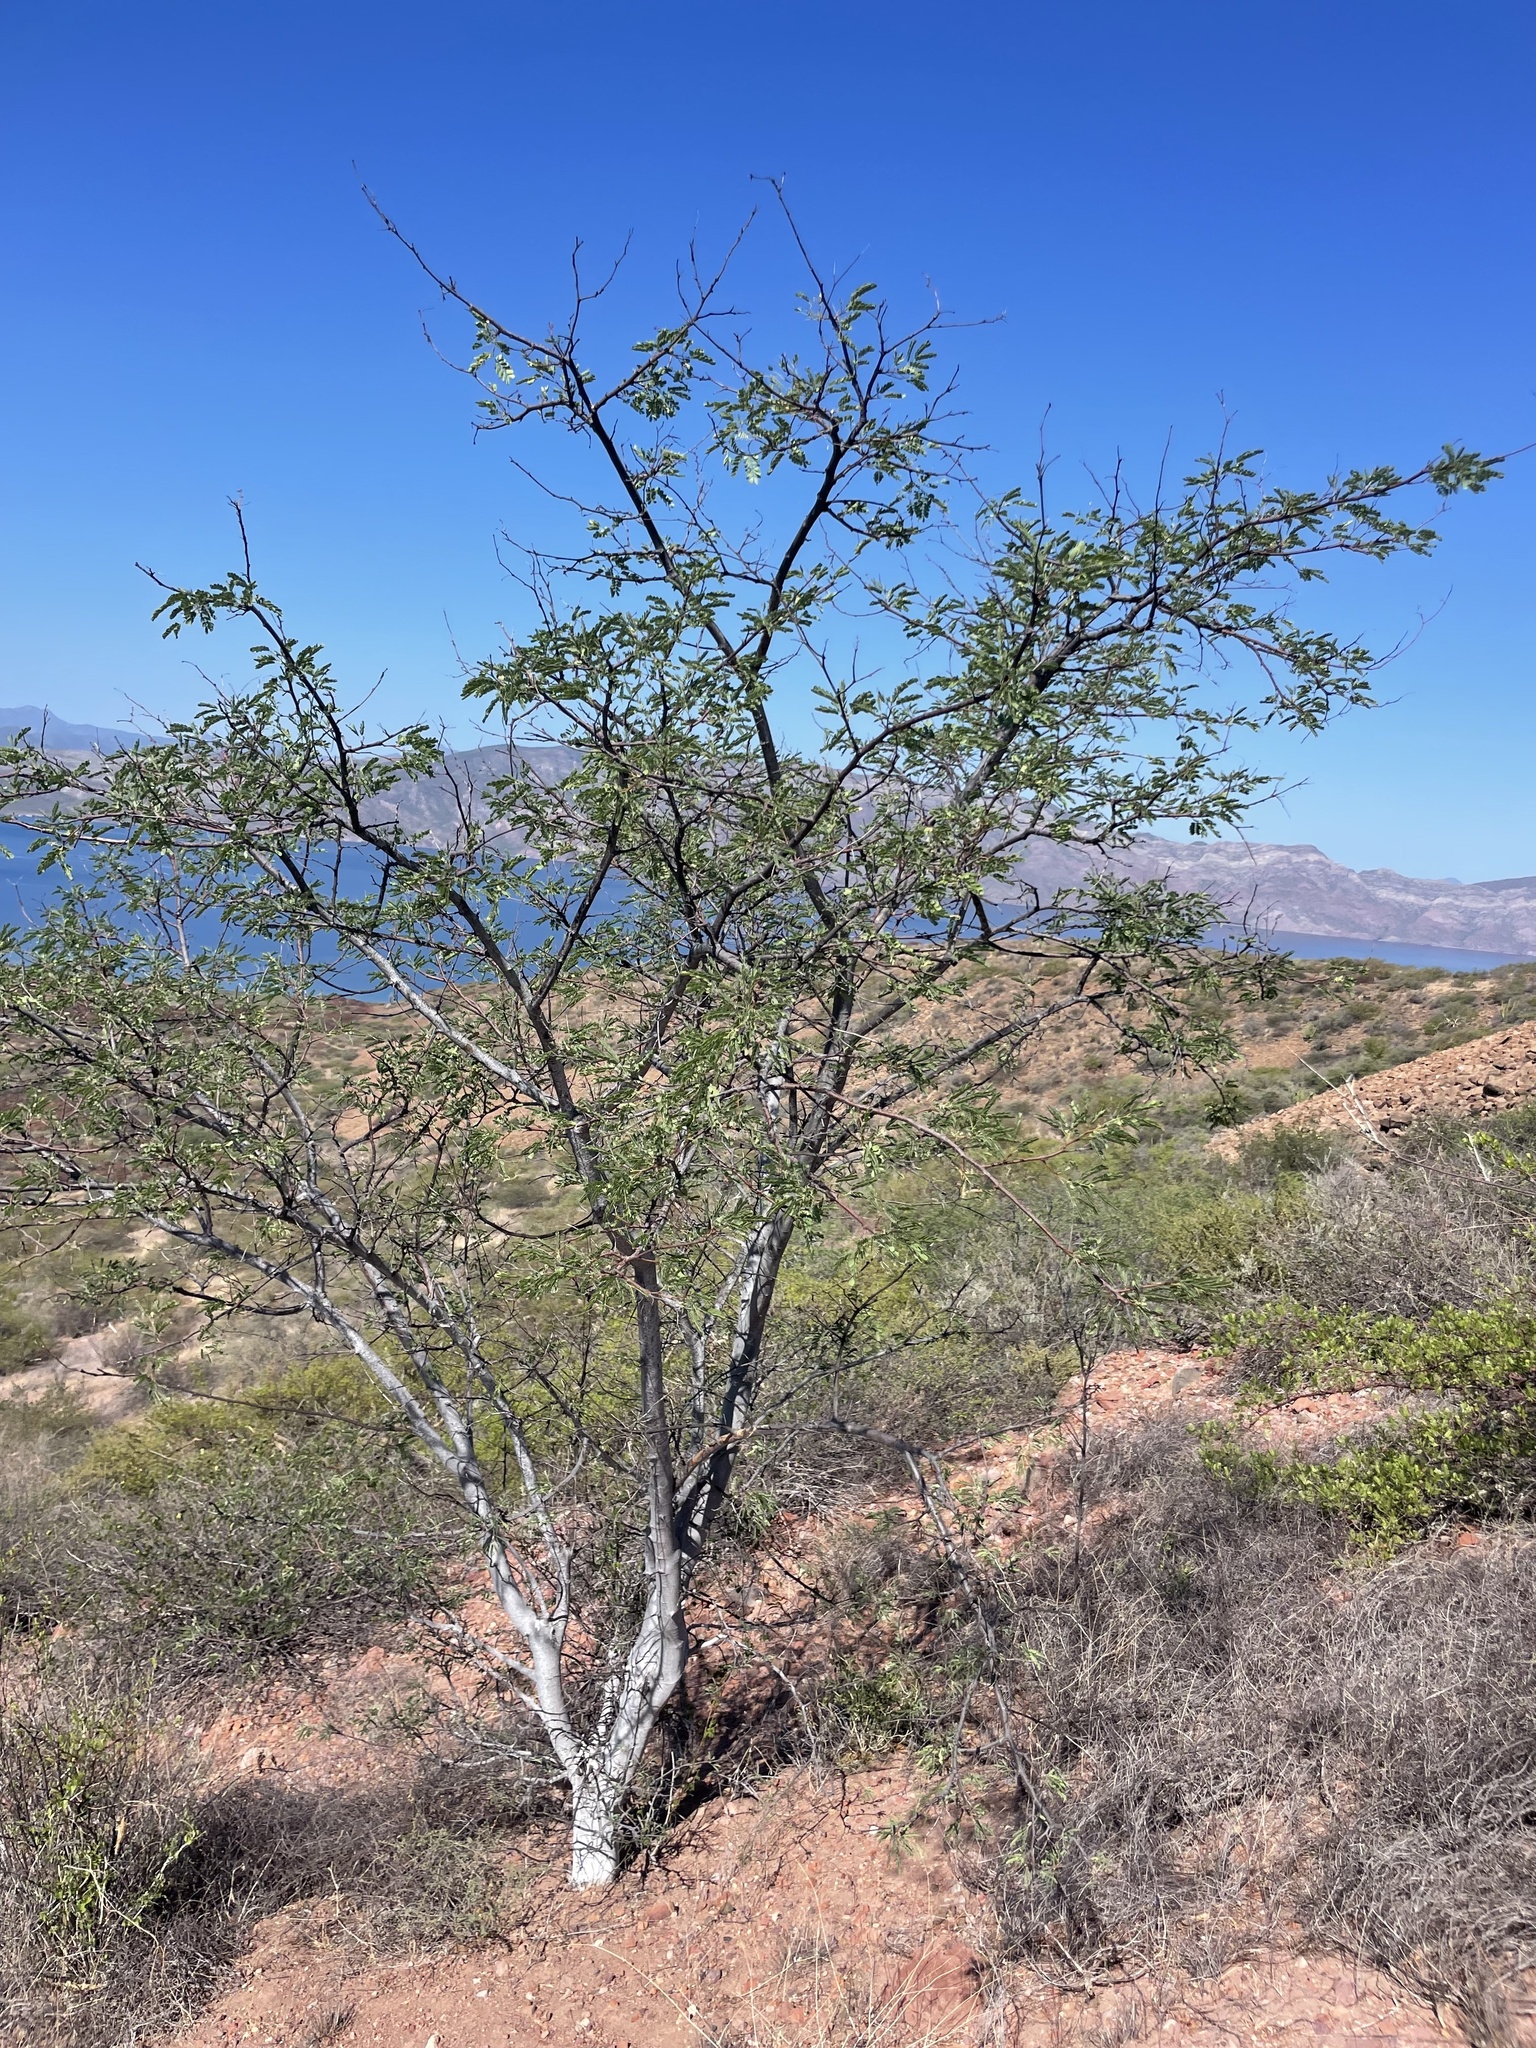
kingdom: Plantae
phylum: Tracheophyta
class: Magnoliopsida
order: Fabales
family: Fabaceae
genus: Lysiloma
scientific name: Lysiloma candidum
